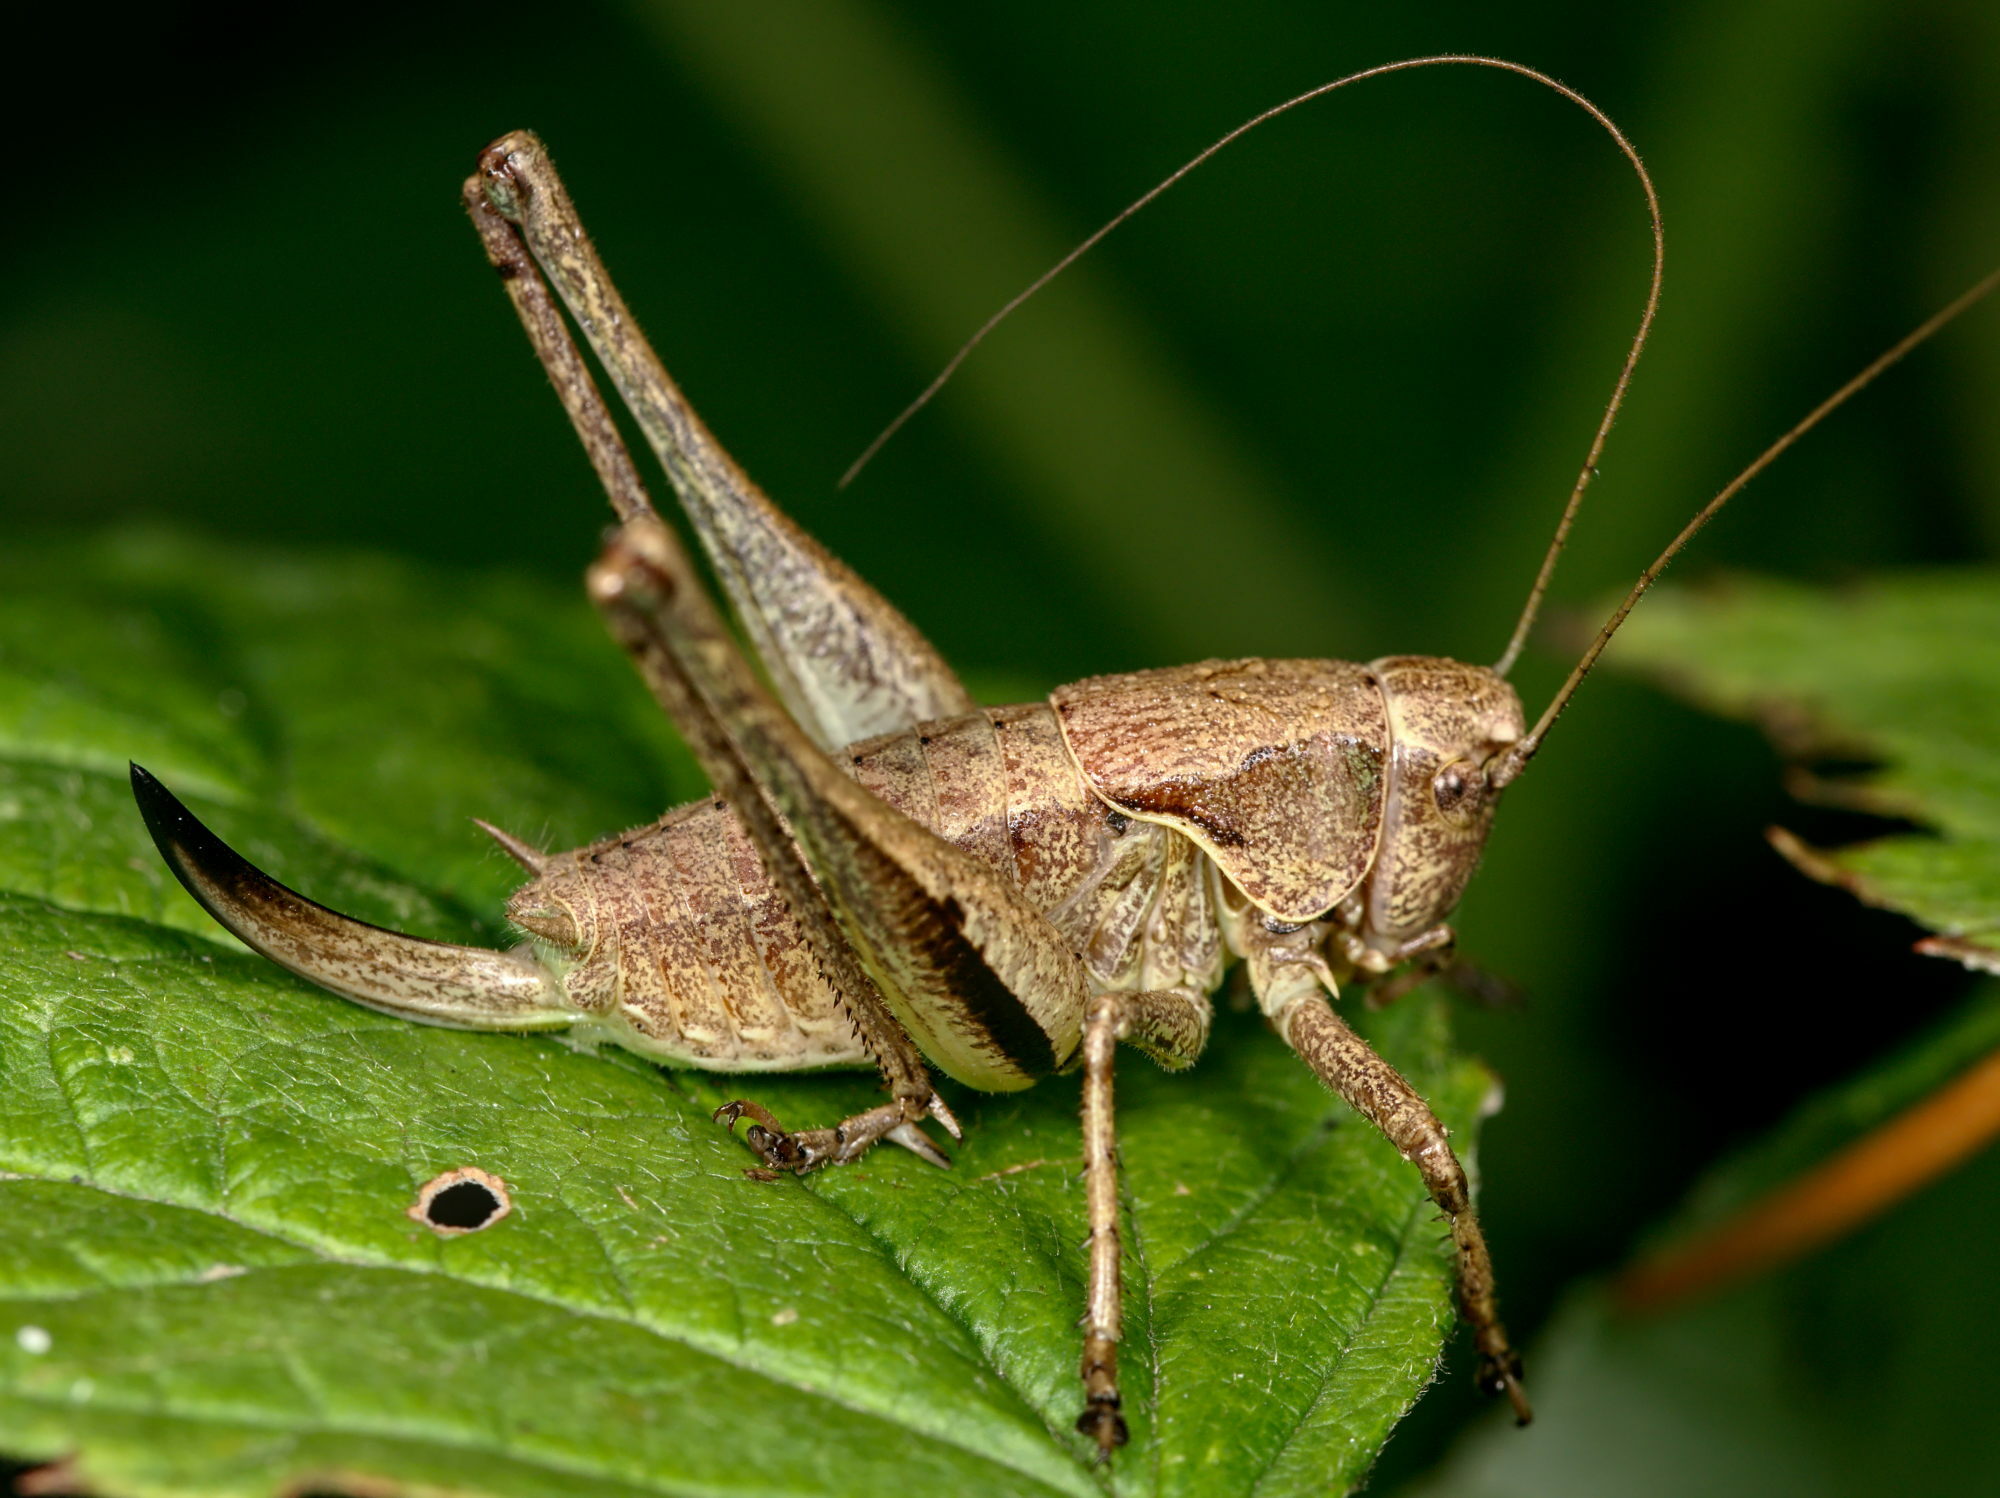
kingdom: Animalia
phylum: Arthropoda
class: Insecta
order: Orthoptera
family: Tettigoniidae
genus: Pholidoptera
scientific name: Pholidoptera griseoaptera
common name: Dark bush-cricket
